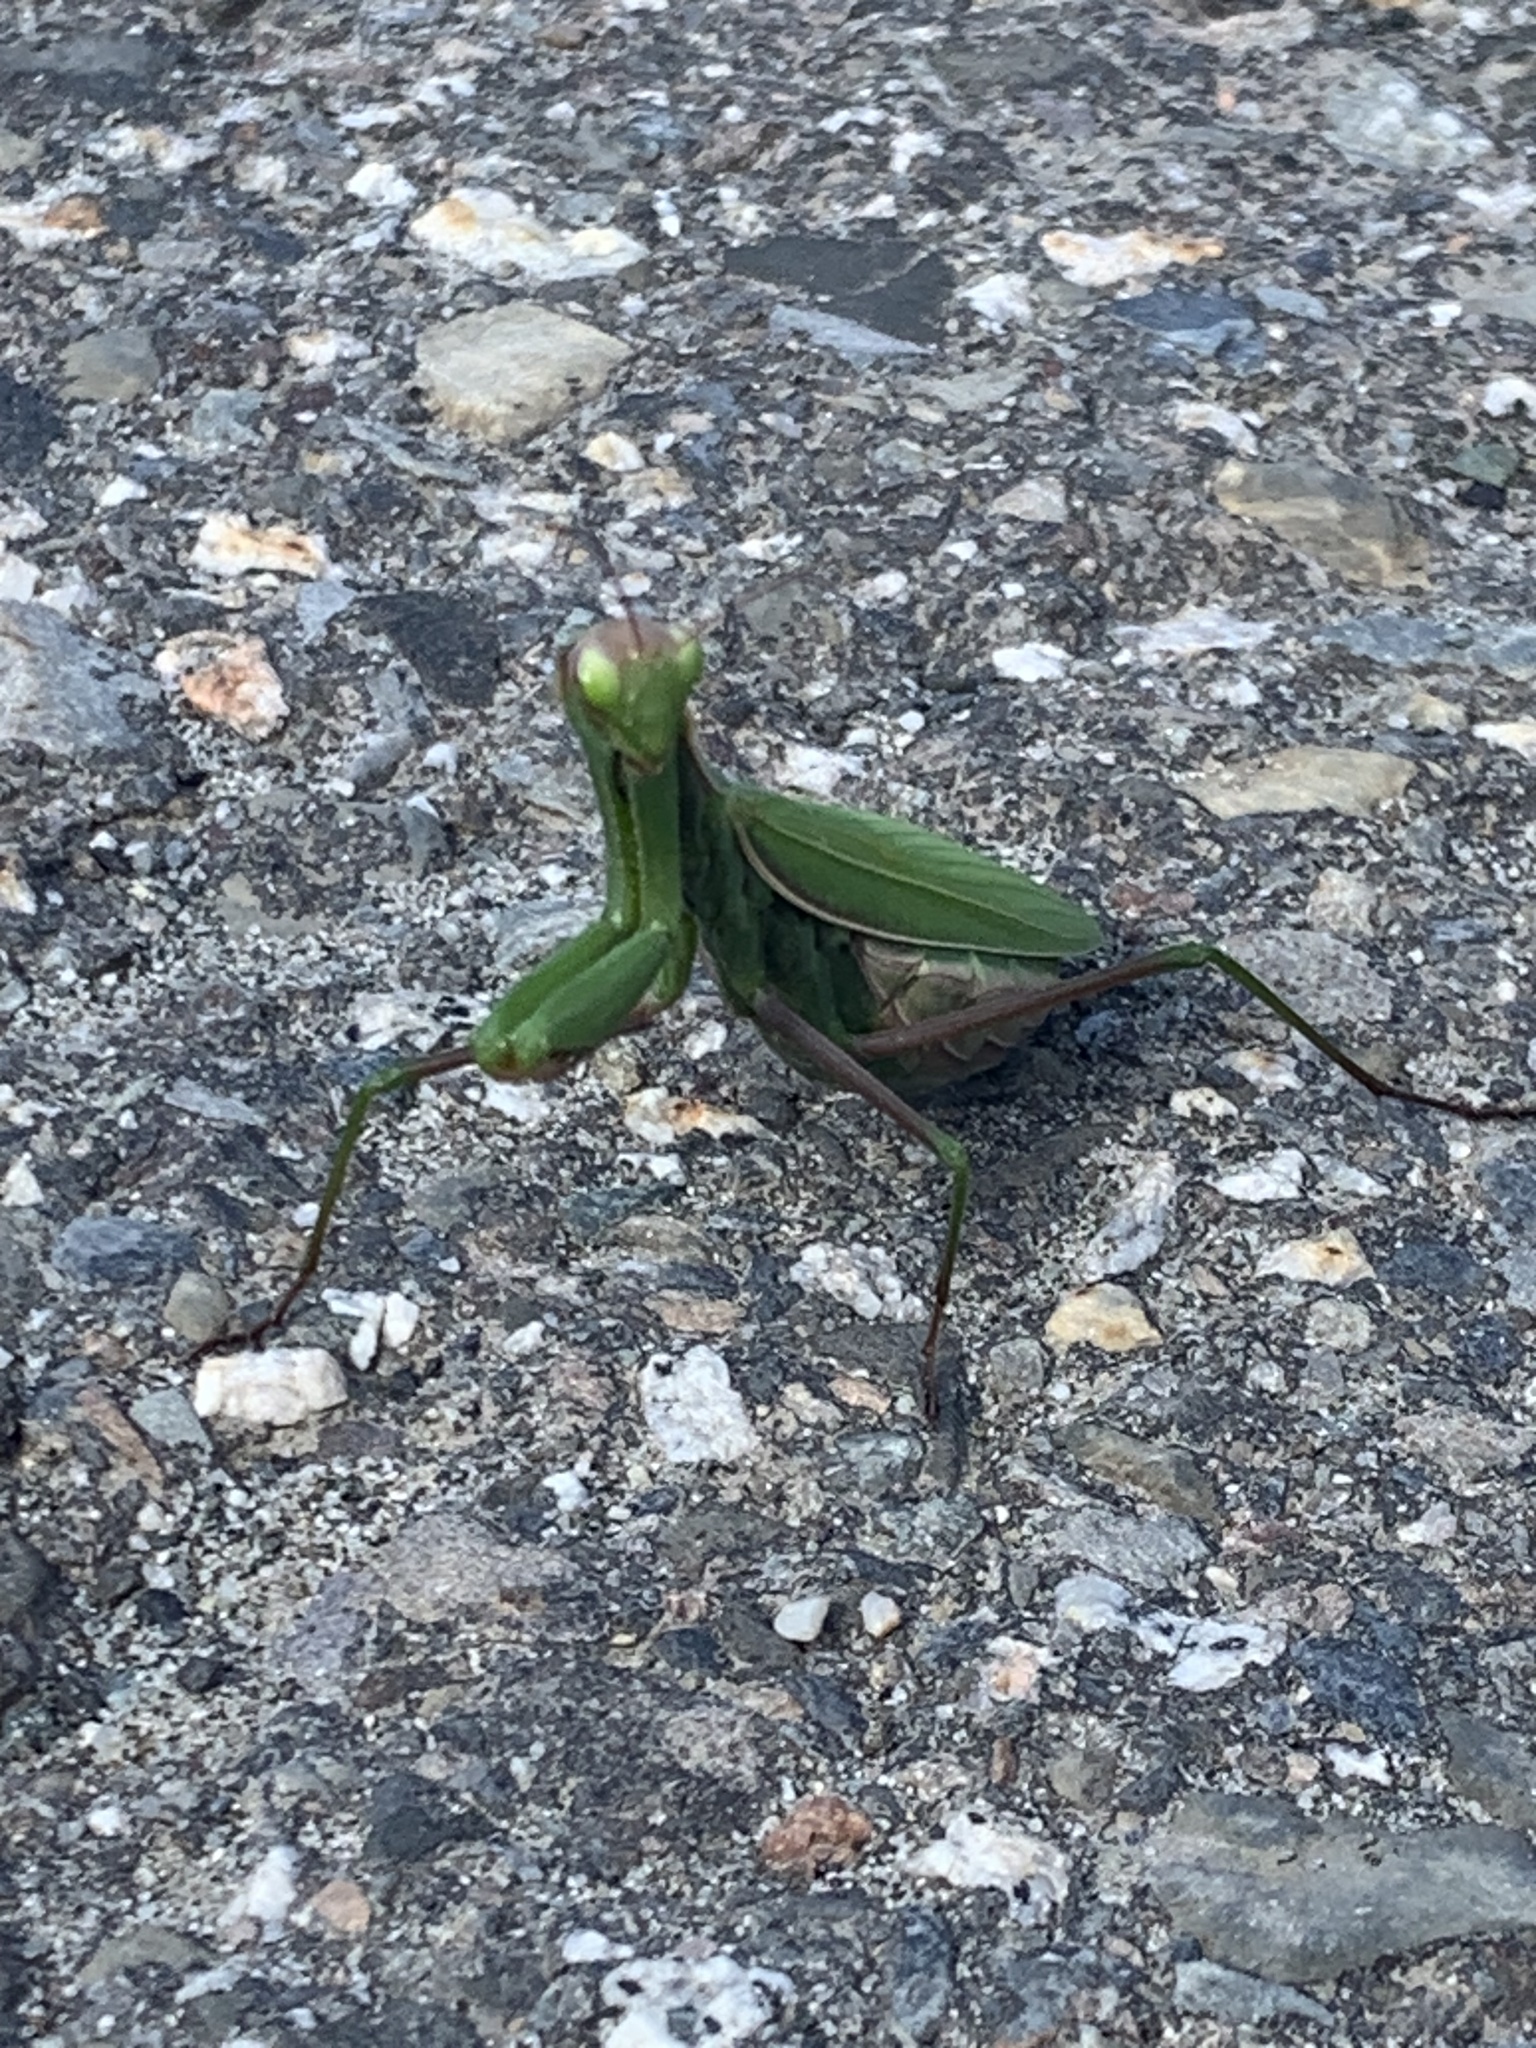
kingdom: Animalia
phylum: Arthropoda
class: Insecta
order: Mantodea
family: Mantidae
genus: Mantis
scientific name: Mantis religiosa
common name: Praying mantis
